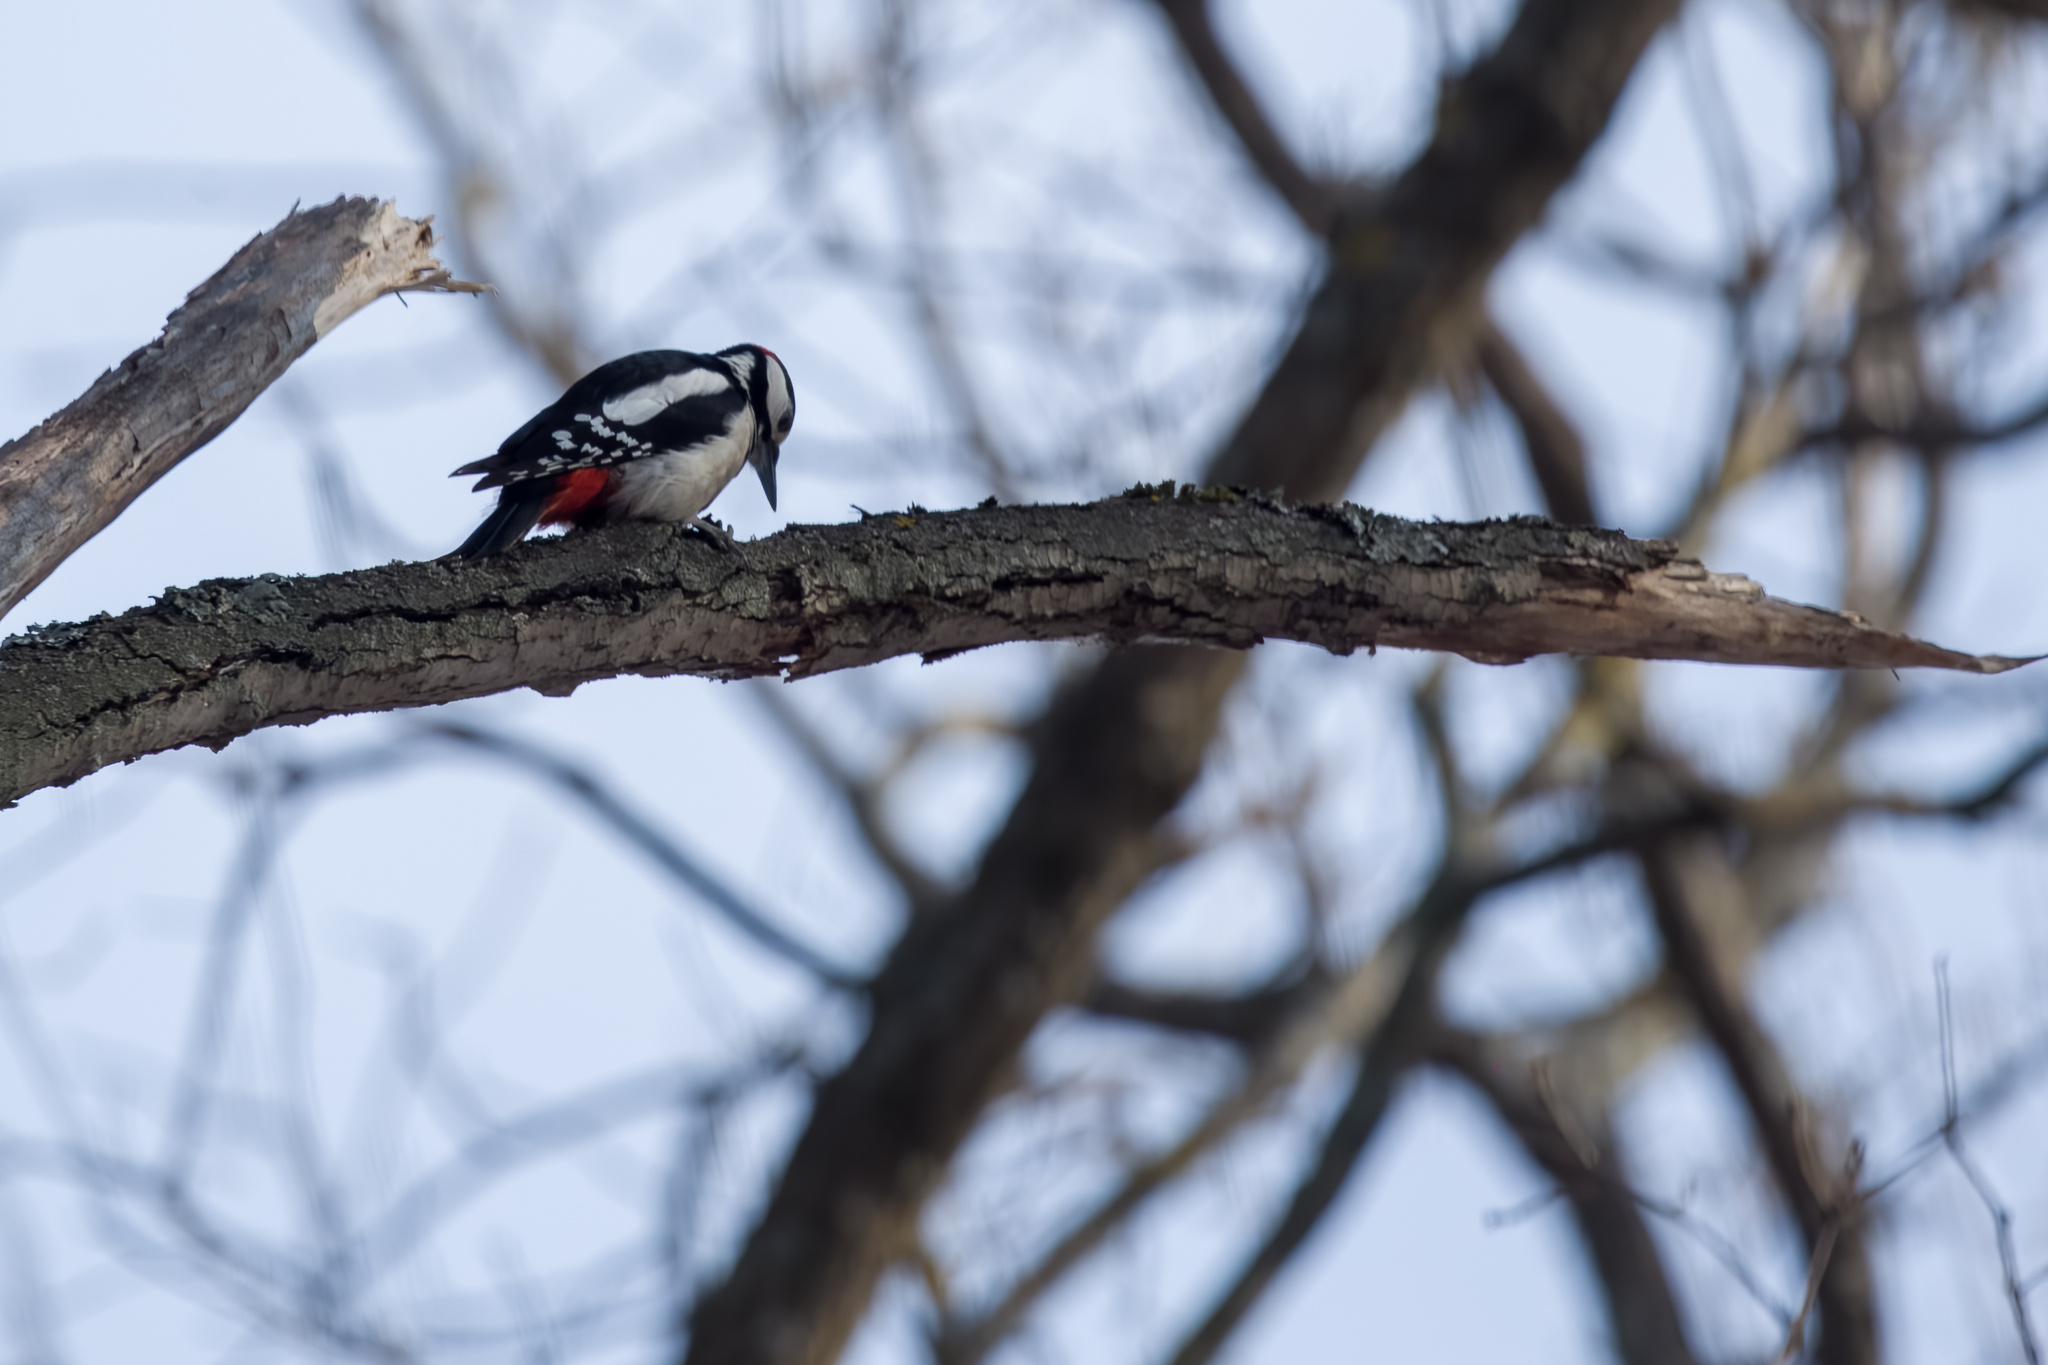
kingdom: Animalia
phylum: Chordata
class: Aves
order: Piciformes
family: Picidae
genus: Dendrocopos
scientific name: Dendrocopos major
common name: Great spotted woodpecker
